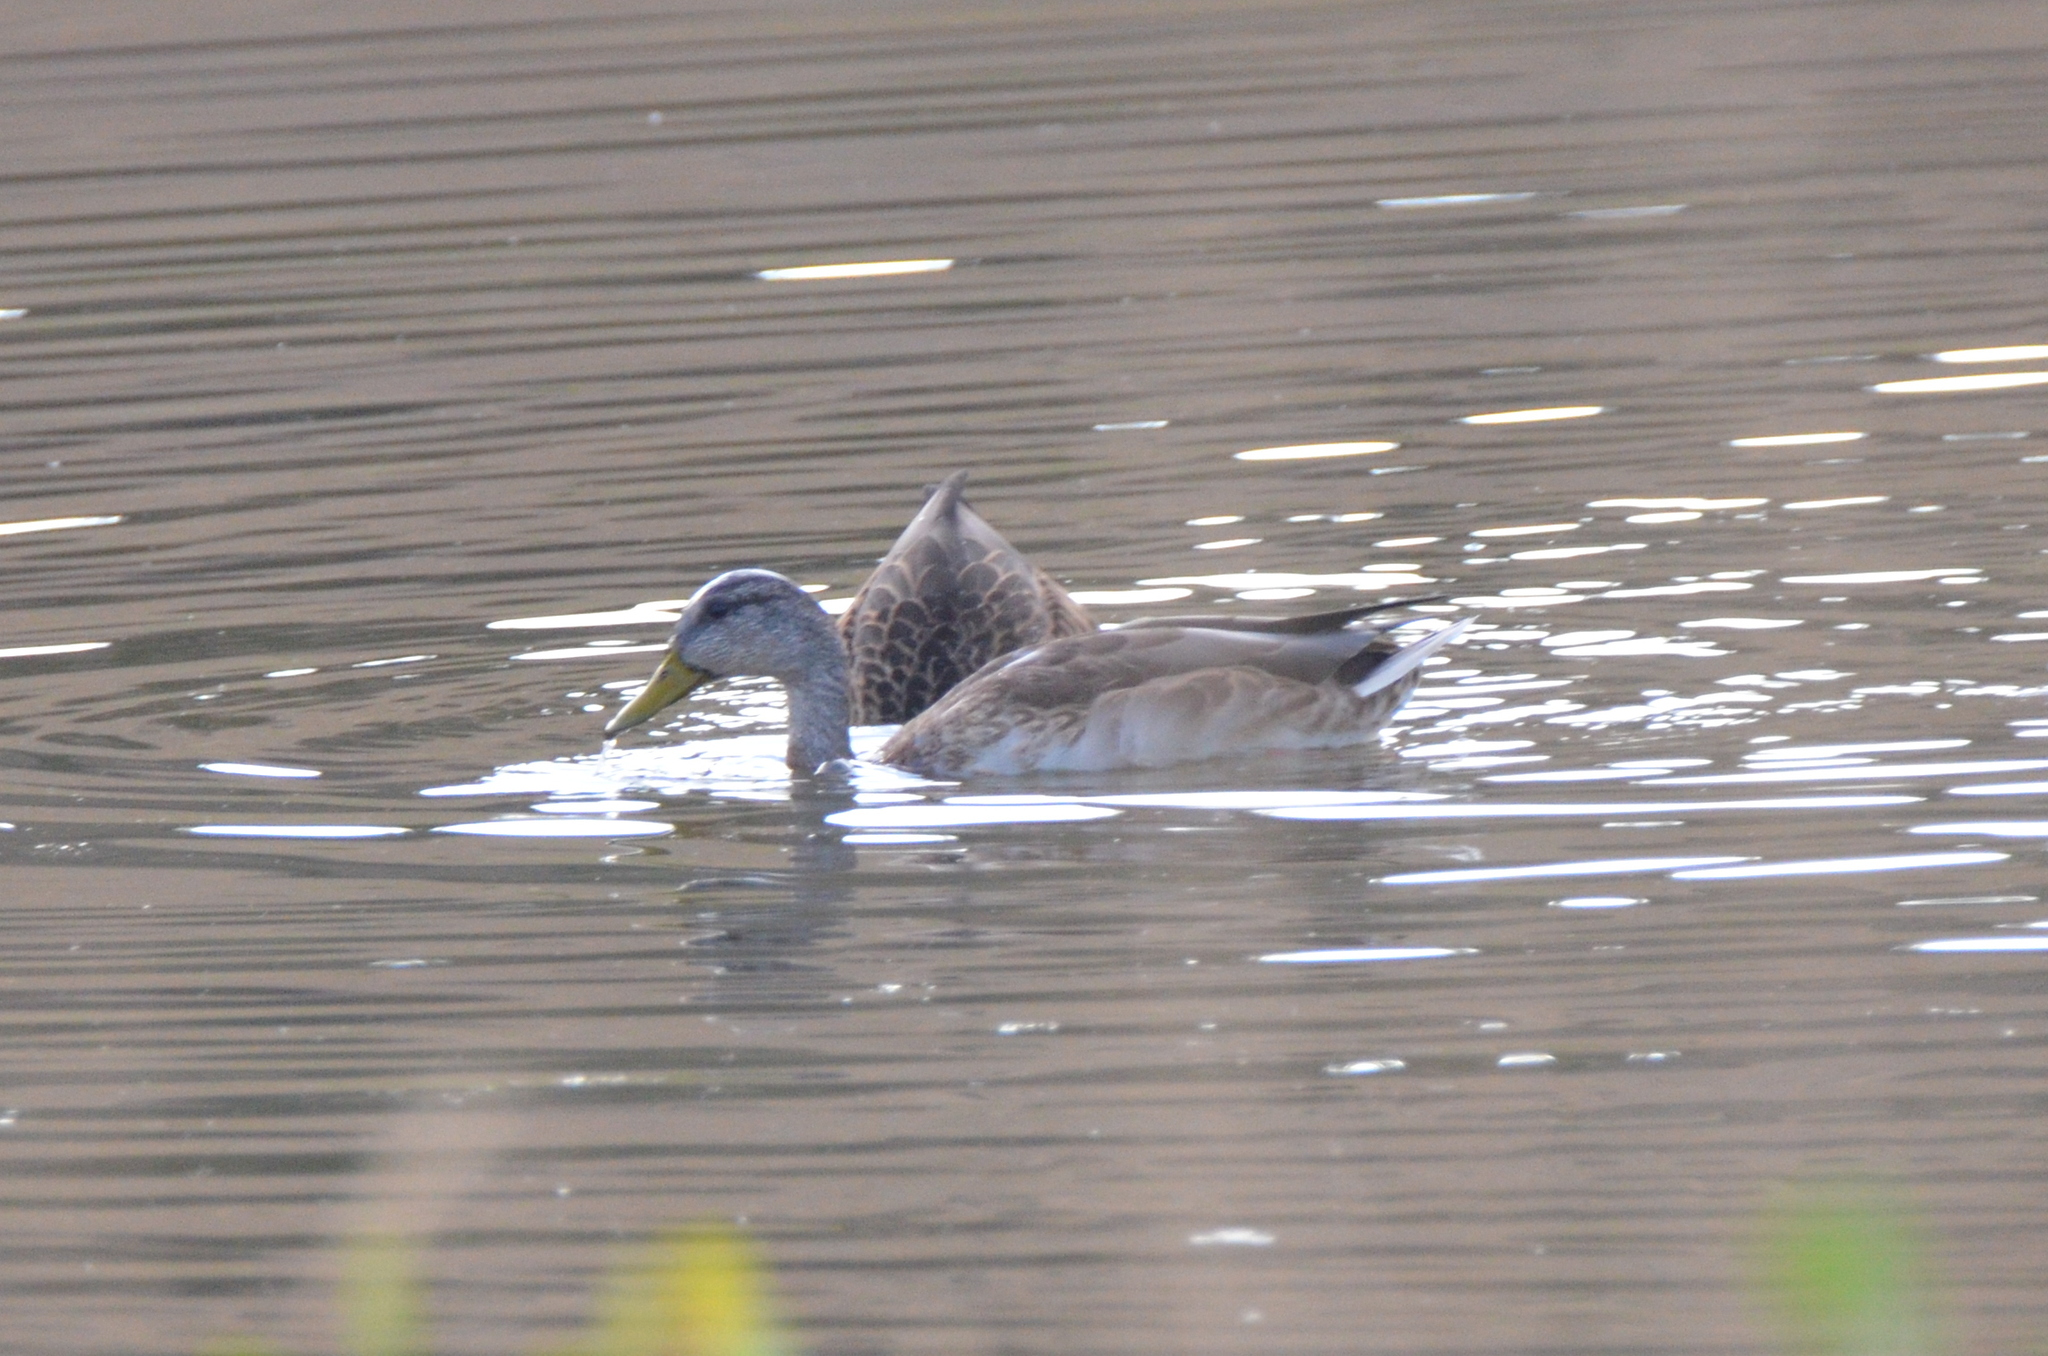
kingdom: Animalia
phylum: Chordata
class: Aves
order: Anseriformes
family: Anatidae
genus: Anas
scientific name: Anas platyrhynchos
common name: Mallard
